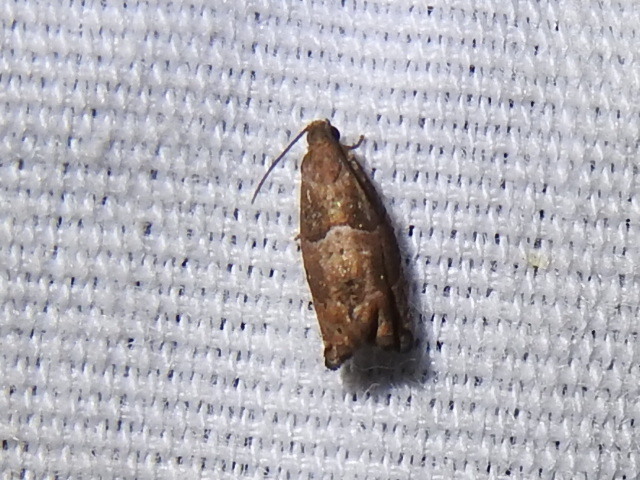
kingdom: Animalia
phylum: Arthropoda
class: Insecta
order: Lepidoptera
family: Tortricidae
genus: Gypsonoma
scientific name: Gypsonoma salicicolana
